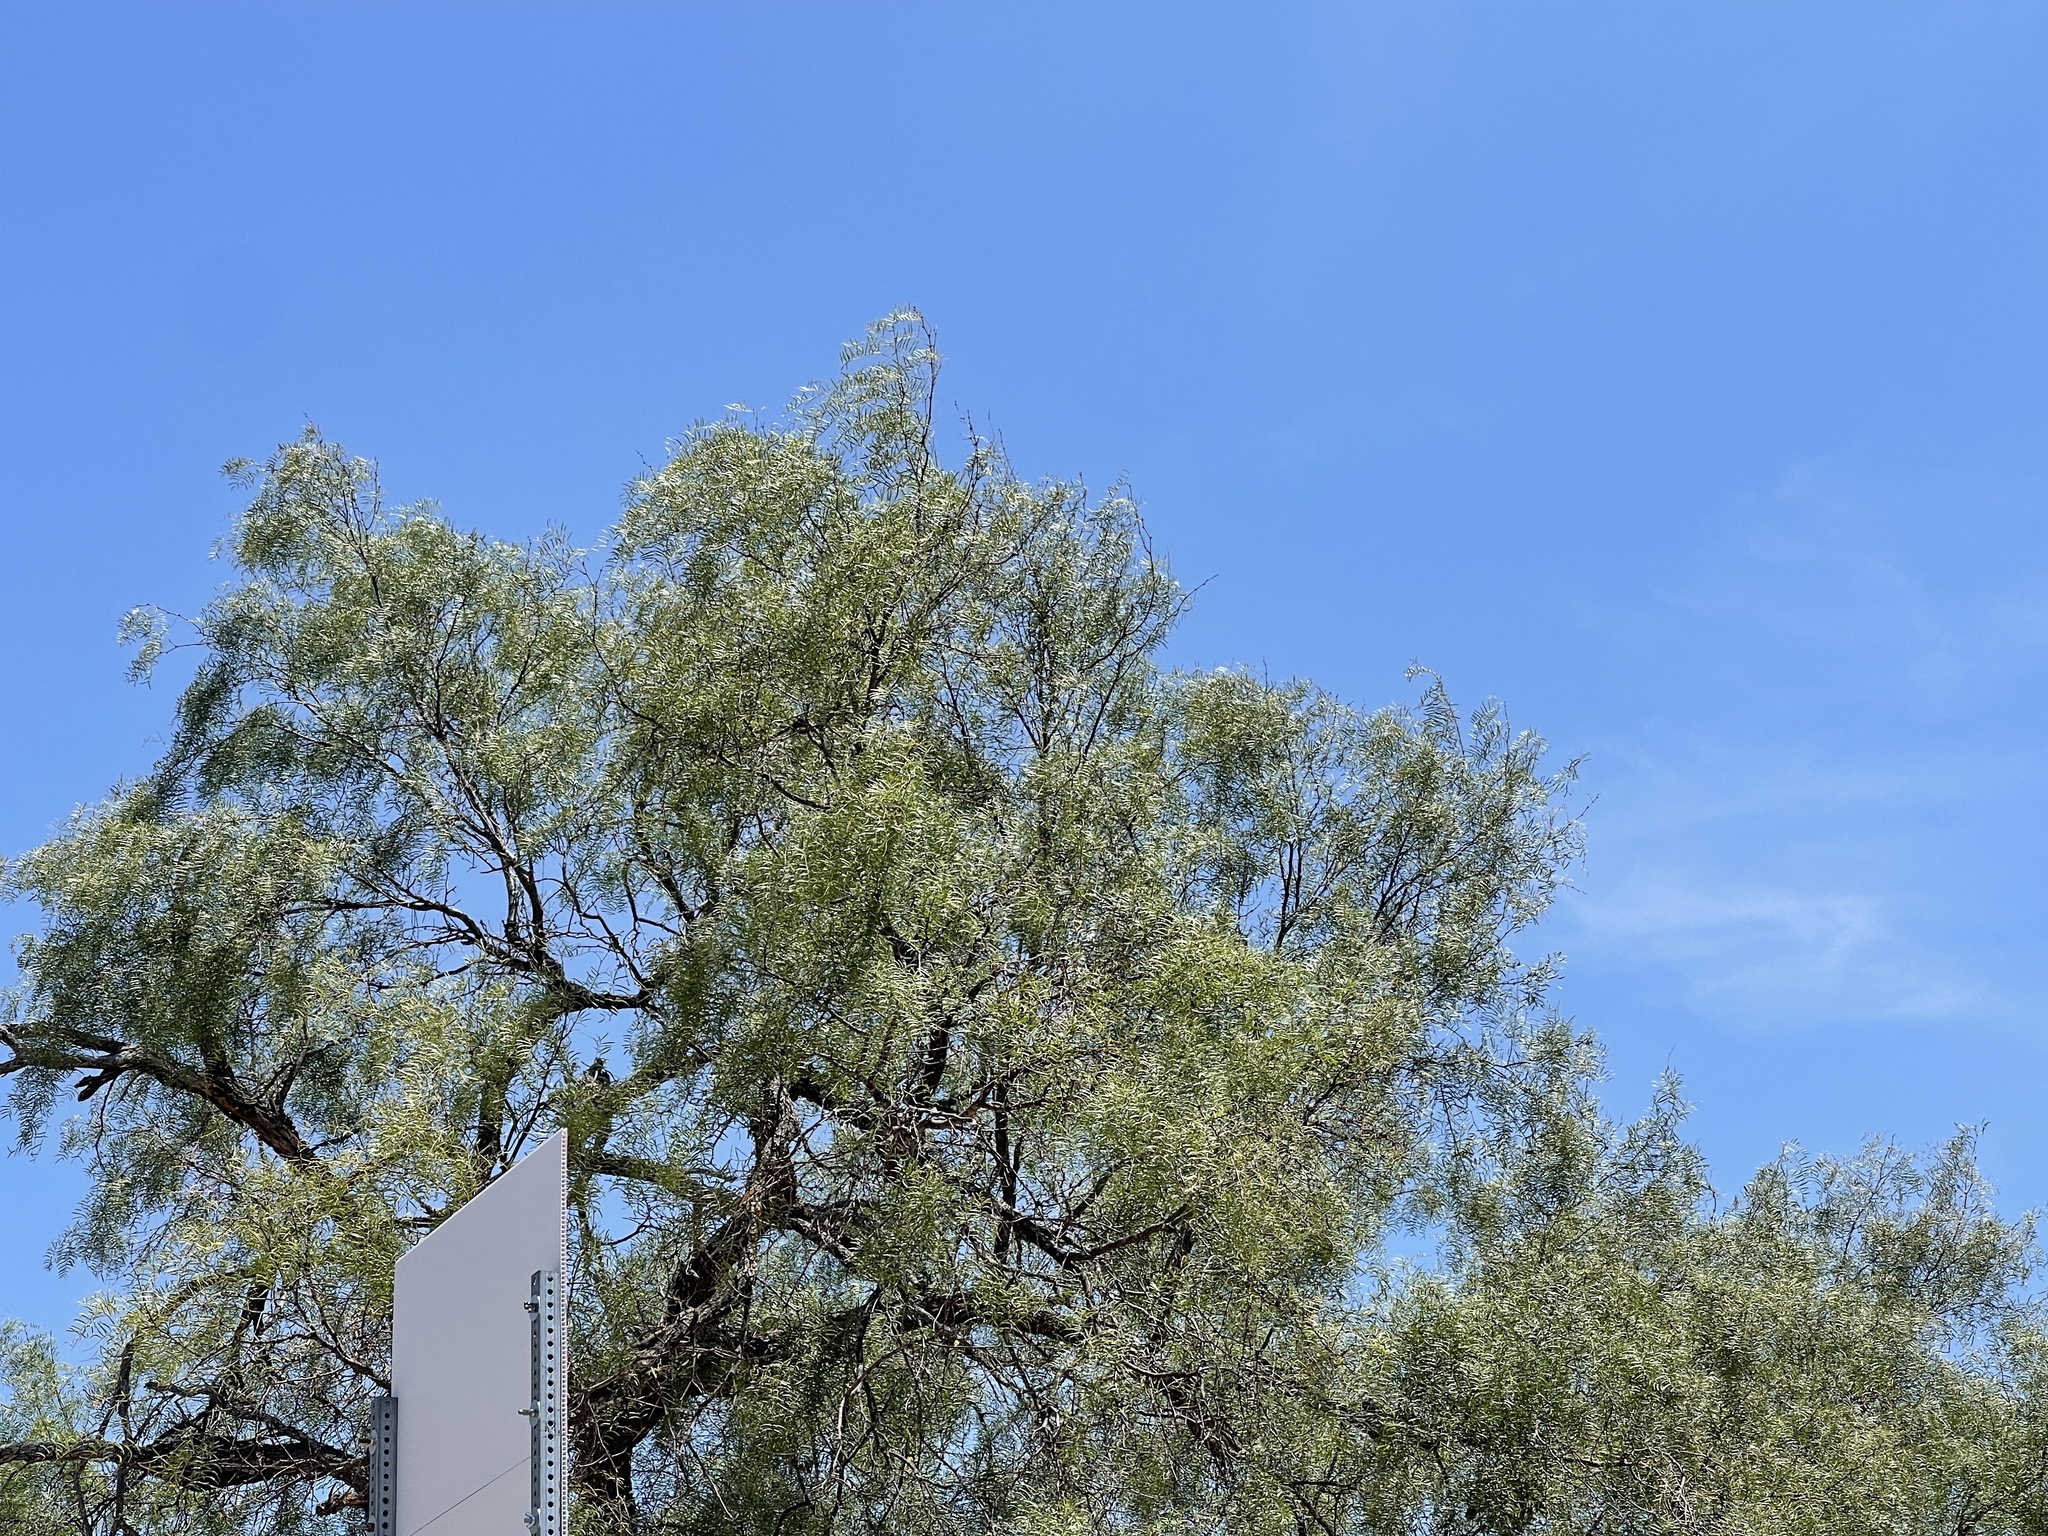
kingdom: Plantae
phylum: Tracheophyta
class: Magnoliopsida
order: Fabales
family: Fabaceae
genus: Prosopis
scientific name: Prosopis glandulosa
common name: Honey mesquite
